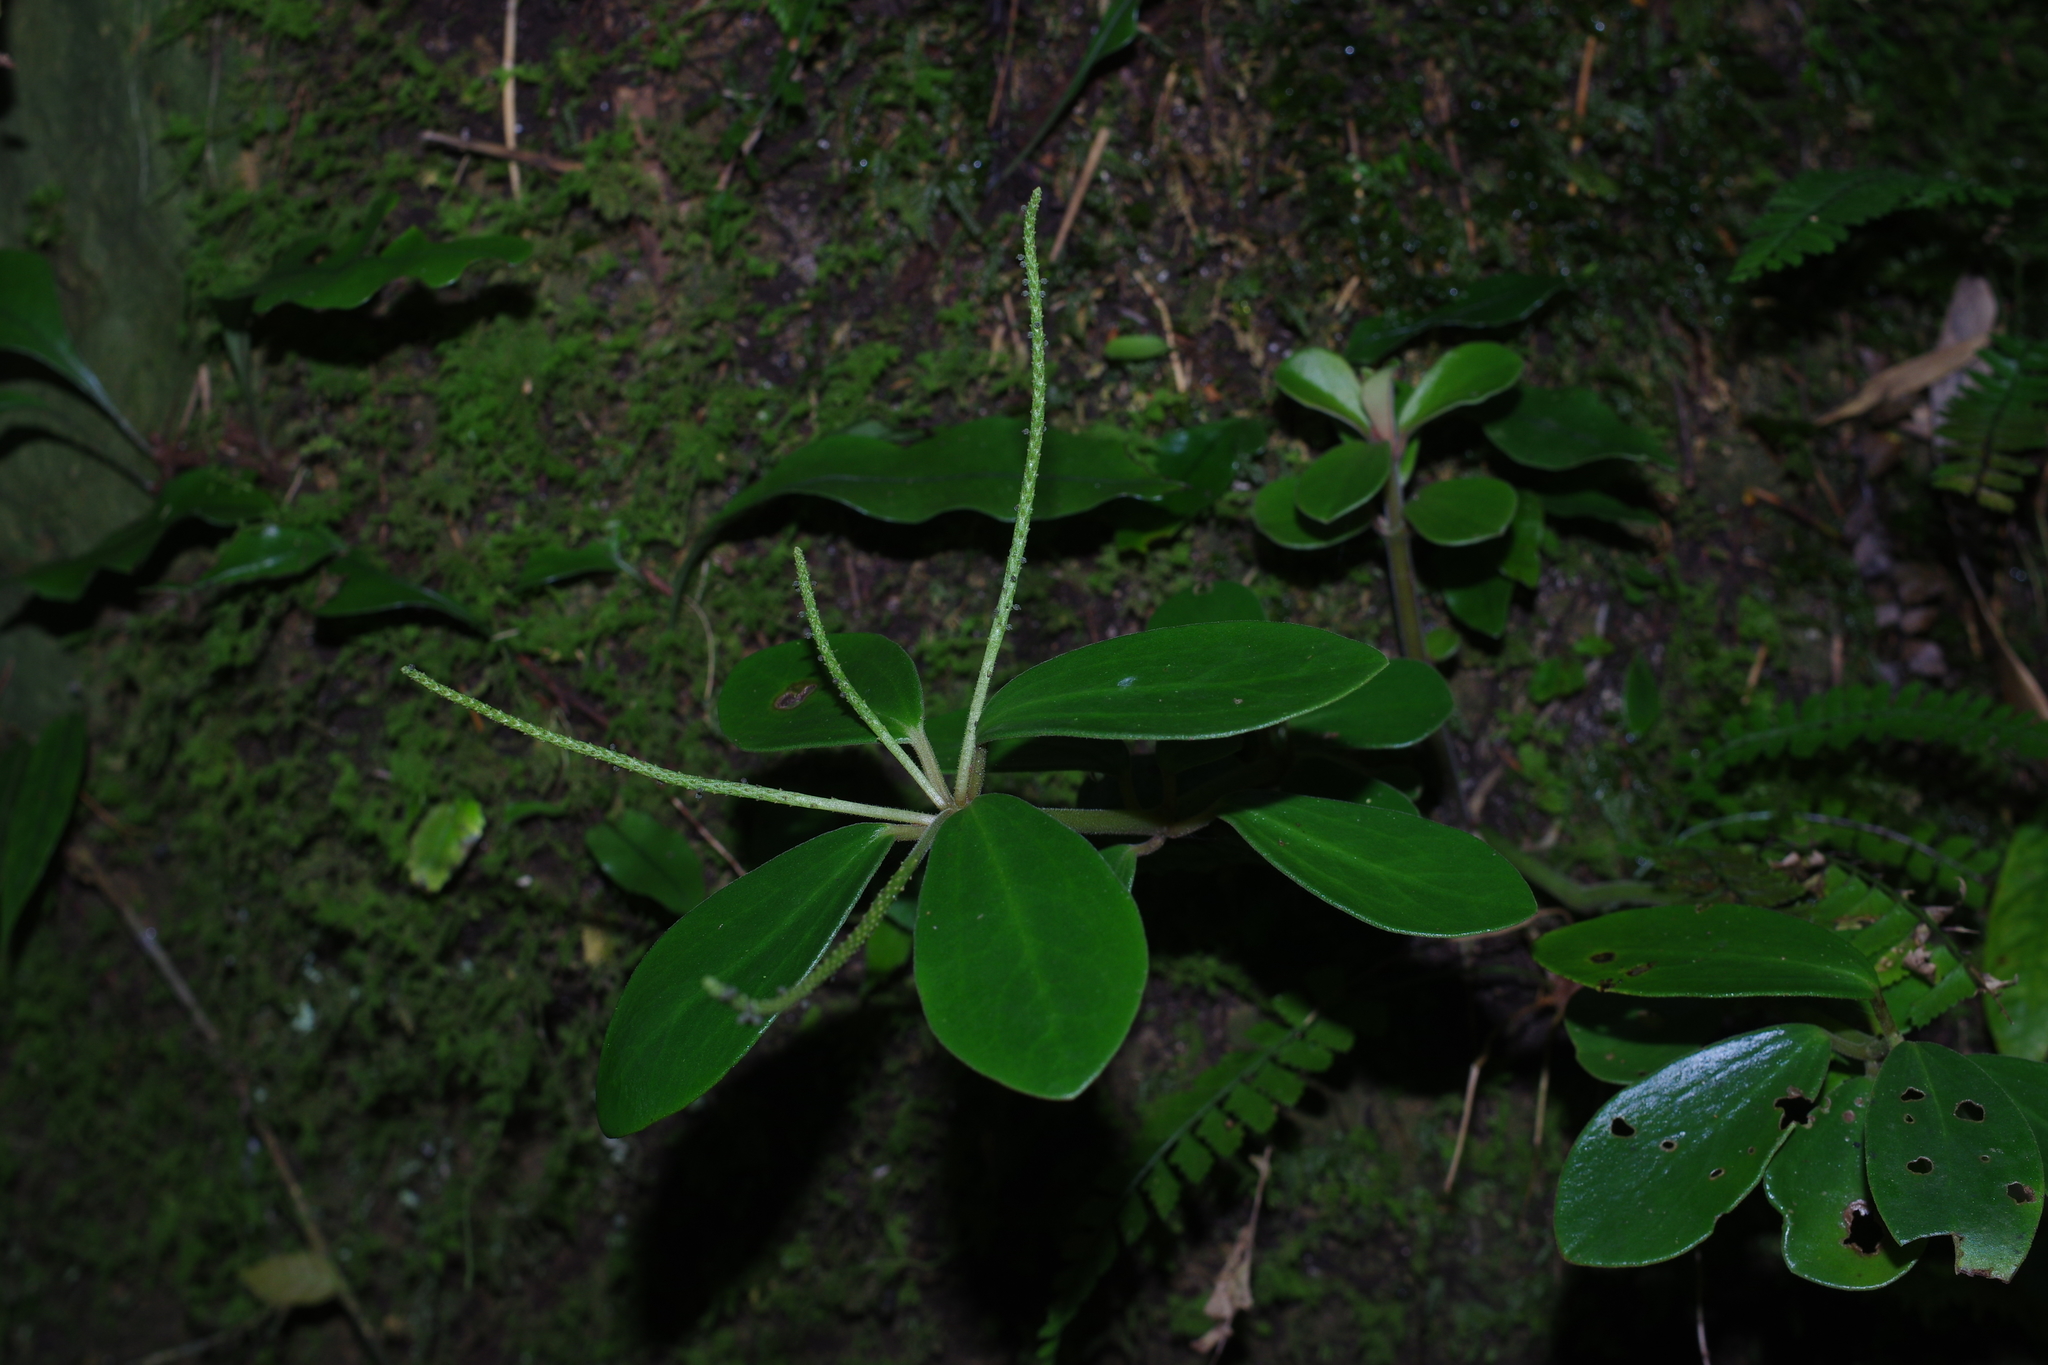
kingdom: Plantae
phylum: Tracheophyta
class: Magnoliopsida
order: Piperales
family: Piperaceae
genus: Peperomia
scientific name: Peperomia japonica
